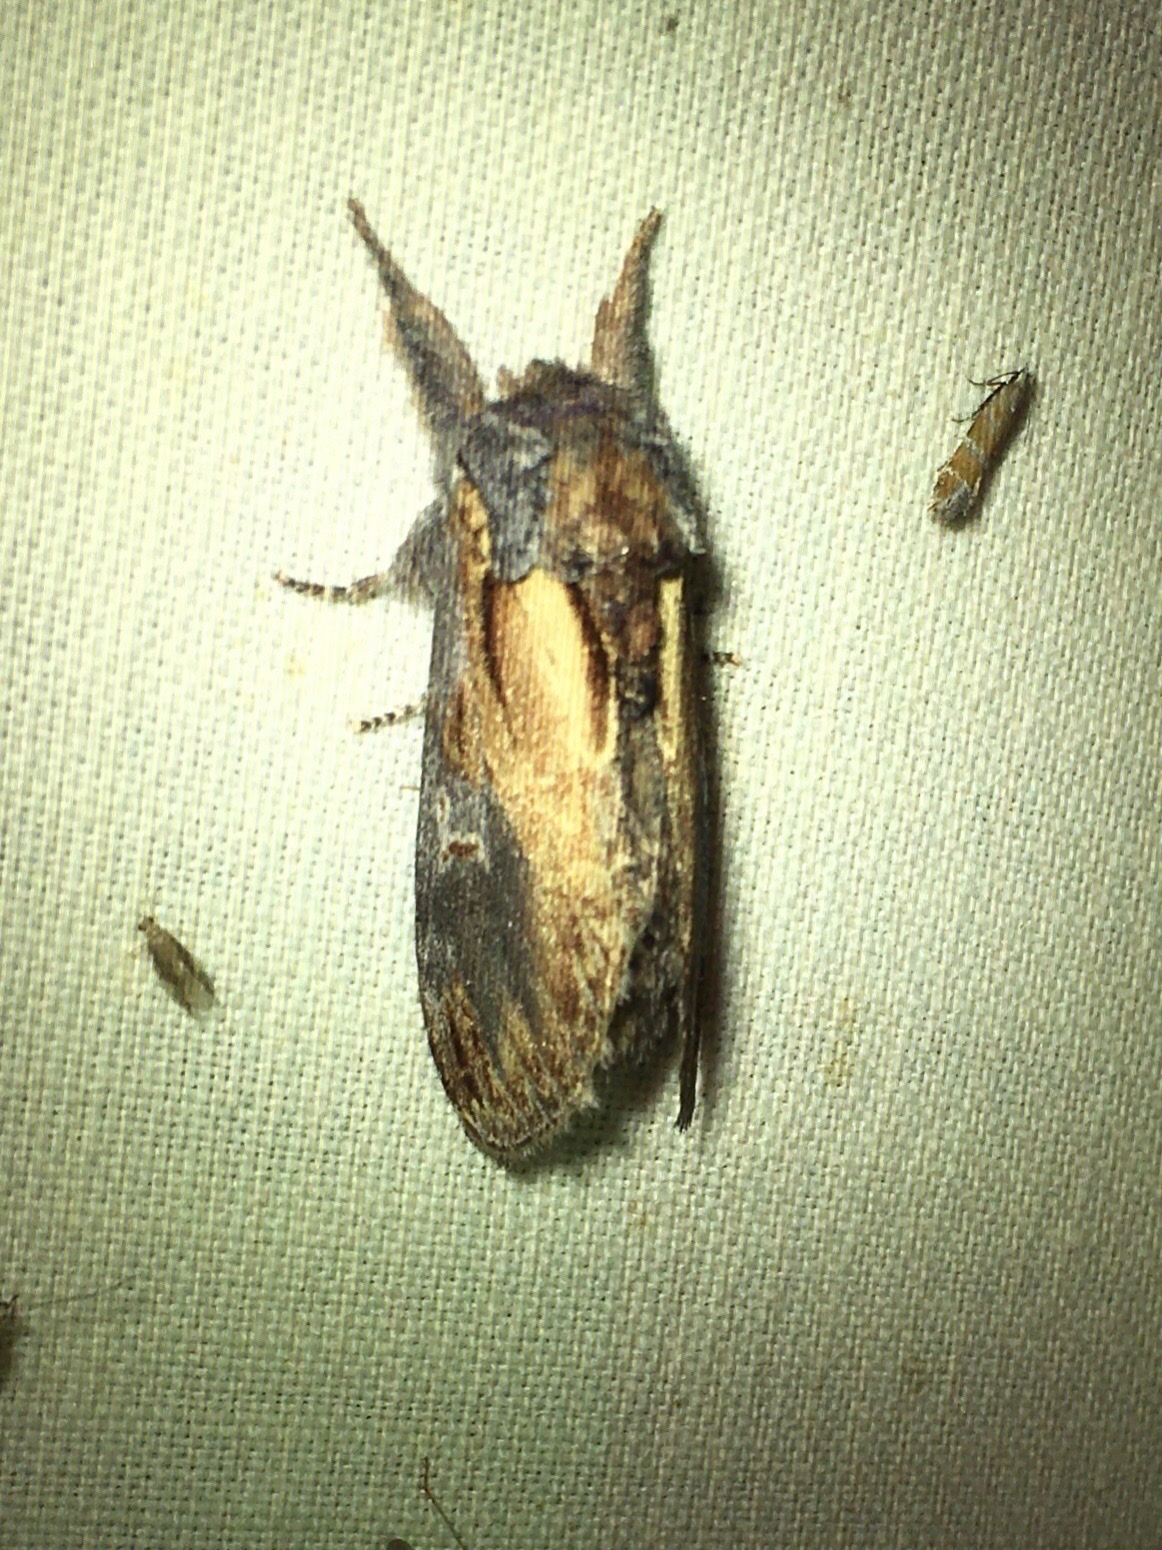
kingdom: Animalia
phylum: Arthropoda
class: Insecta
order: Lepidoptera
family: Notodontidae
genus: Notodonta
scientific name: Notodonta scitipennis
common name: Finned-willow prominent moth
